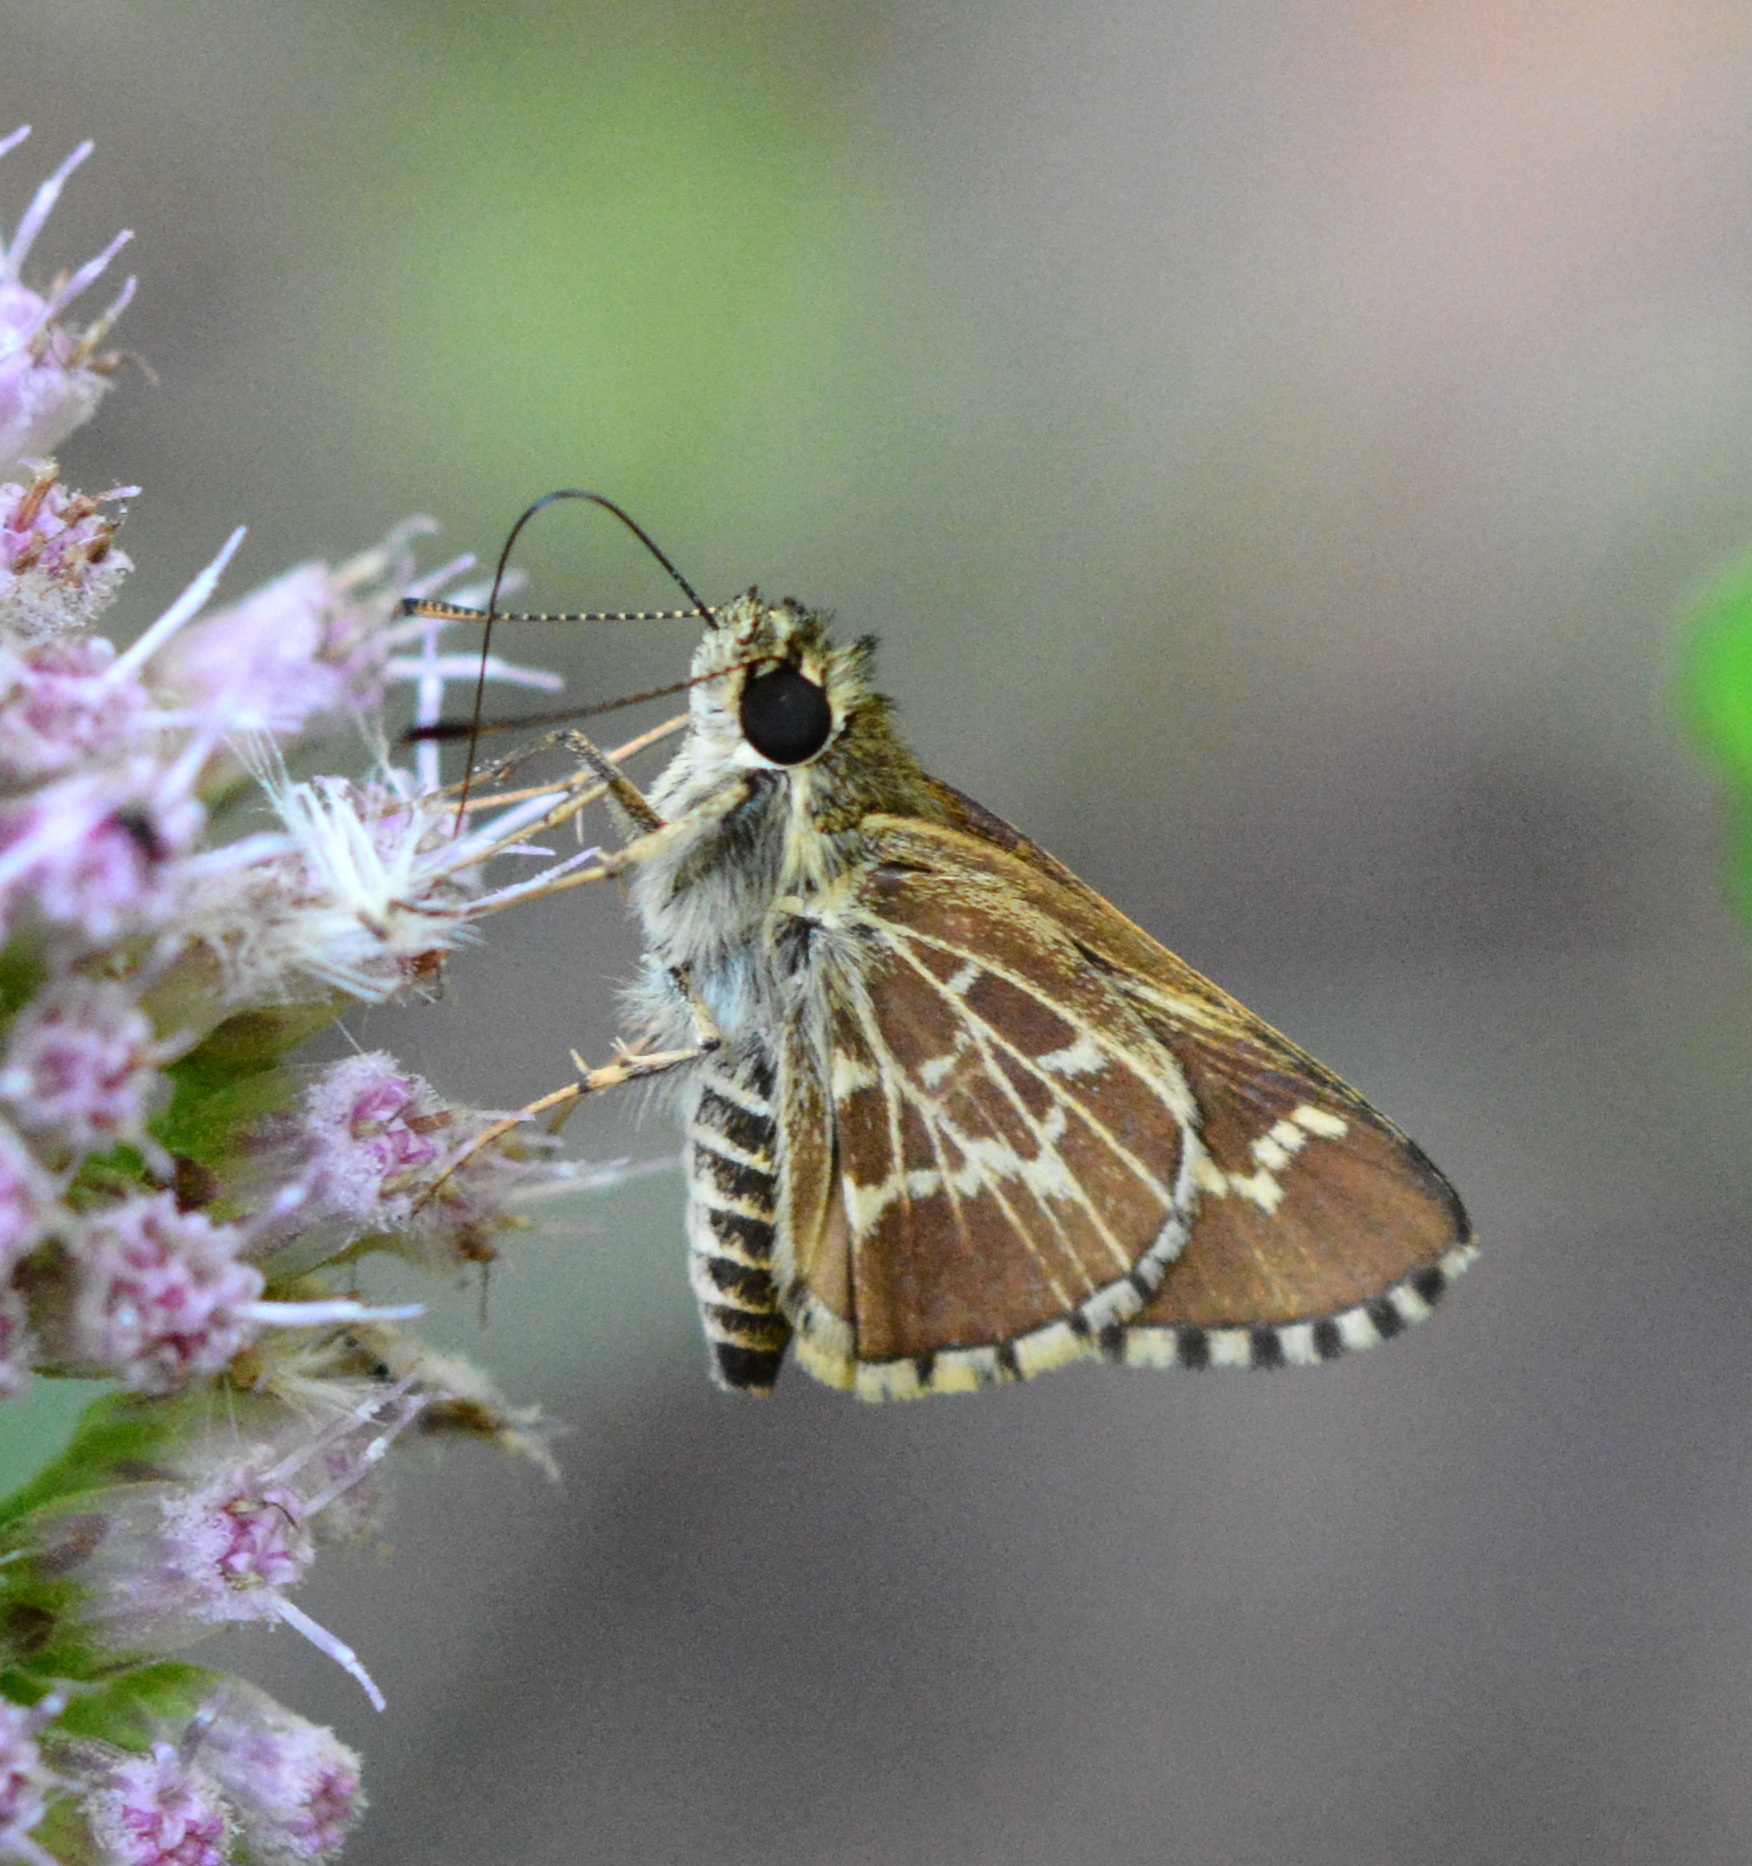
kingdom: Animalia
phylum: Arthropoda
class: Insecta
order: Lepidoptera
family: Hesperiidae
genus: Mastor
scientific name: Mastor aesculapius
